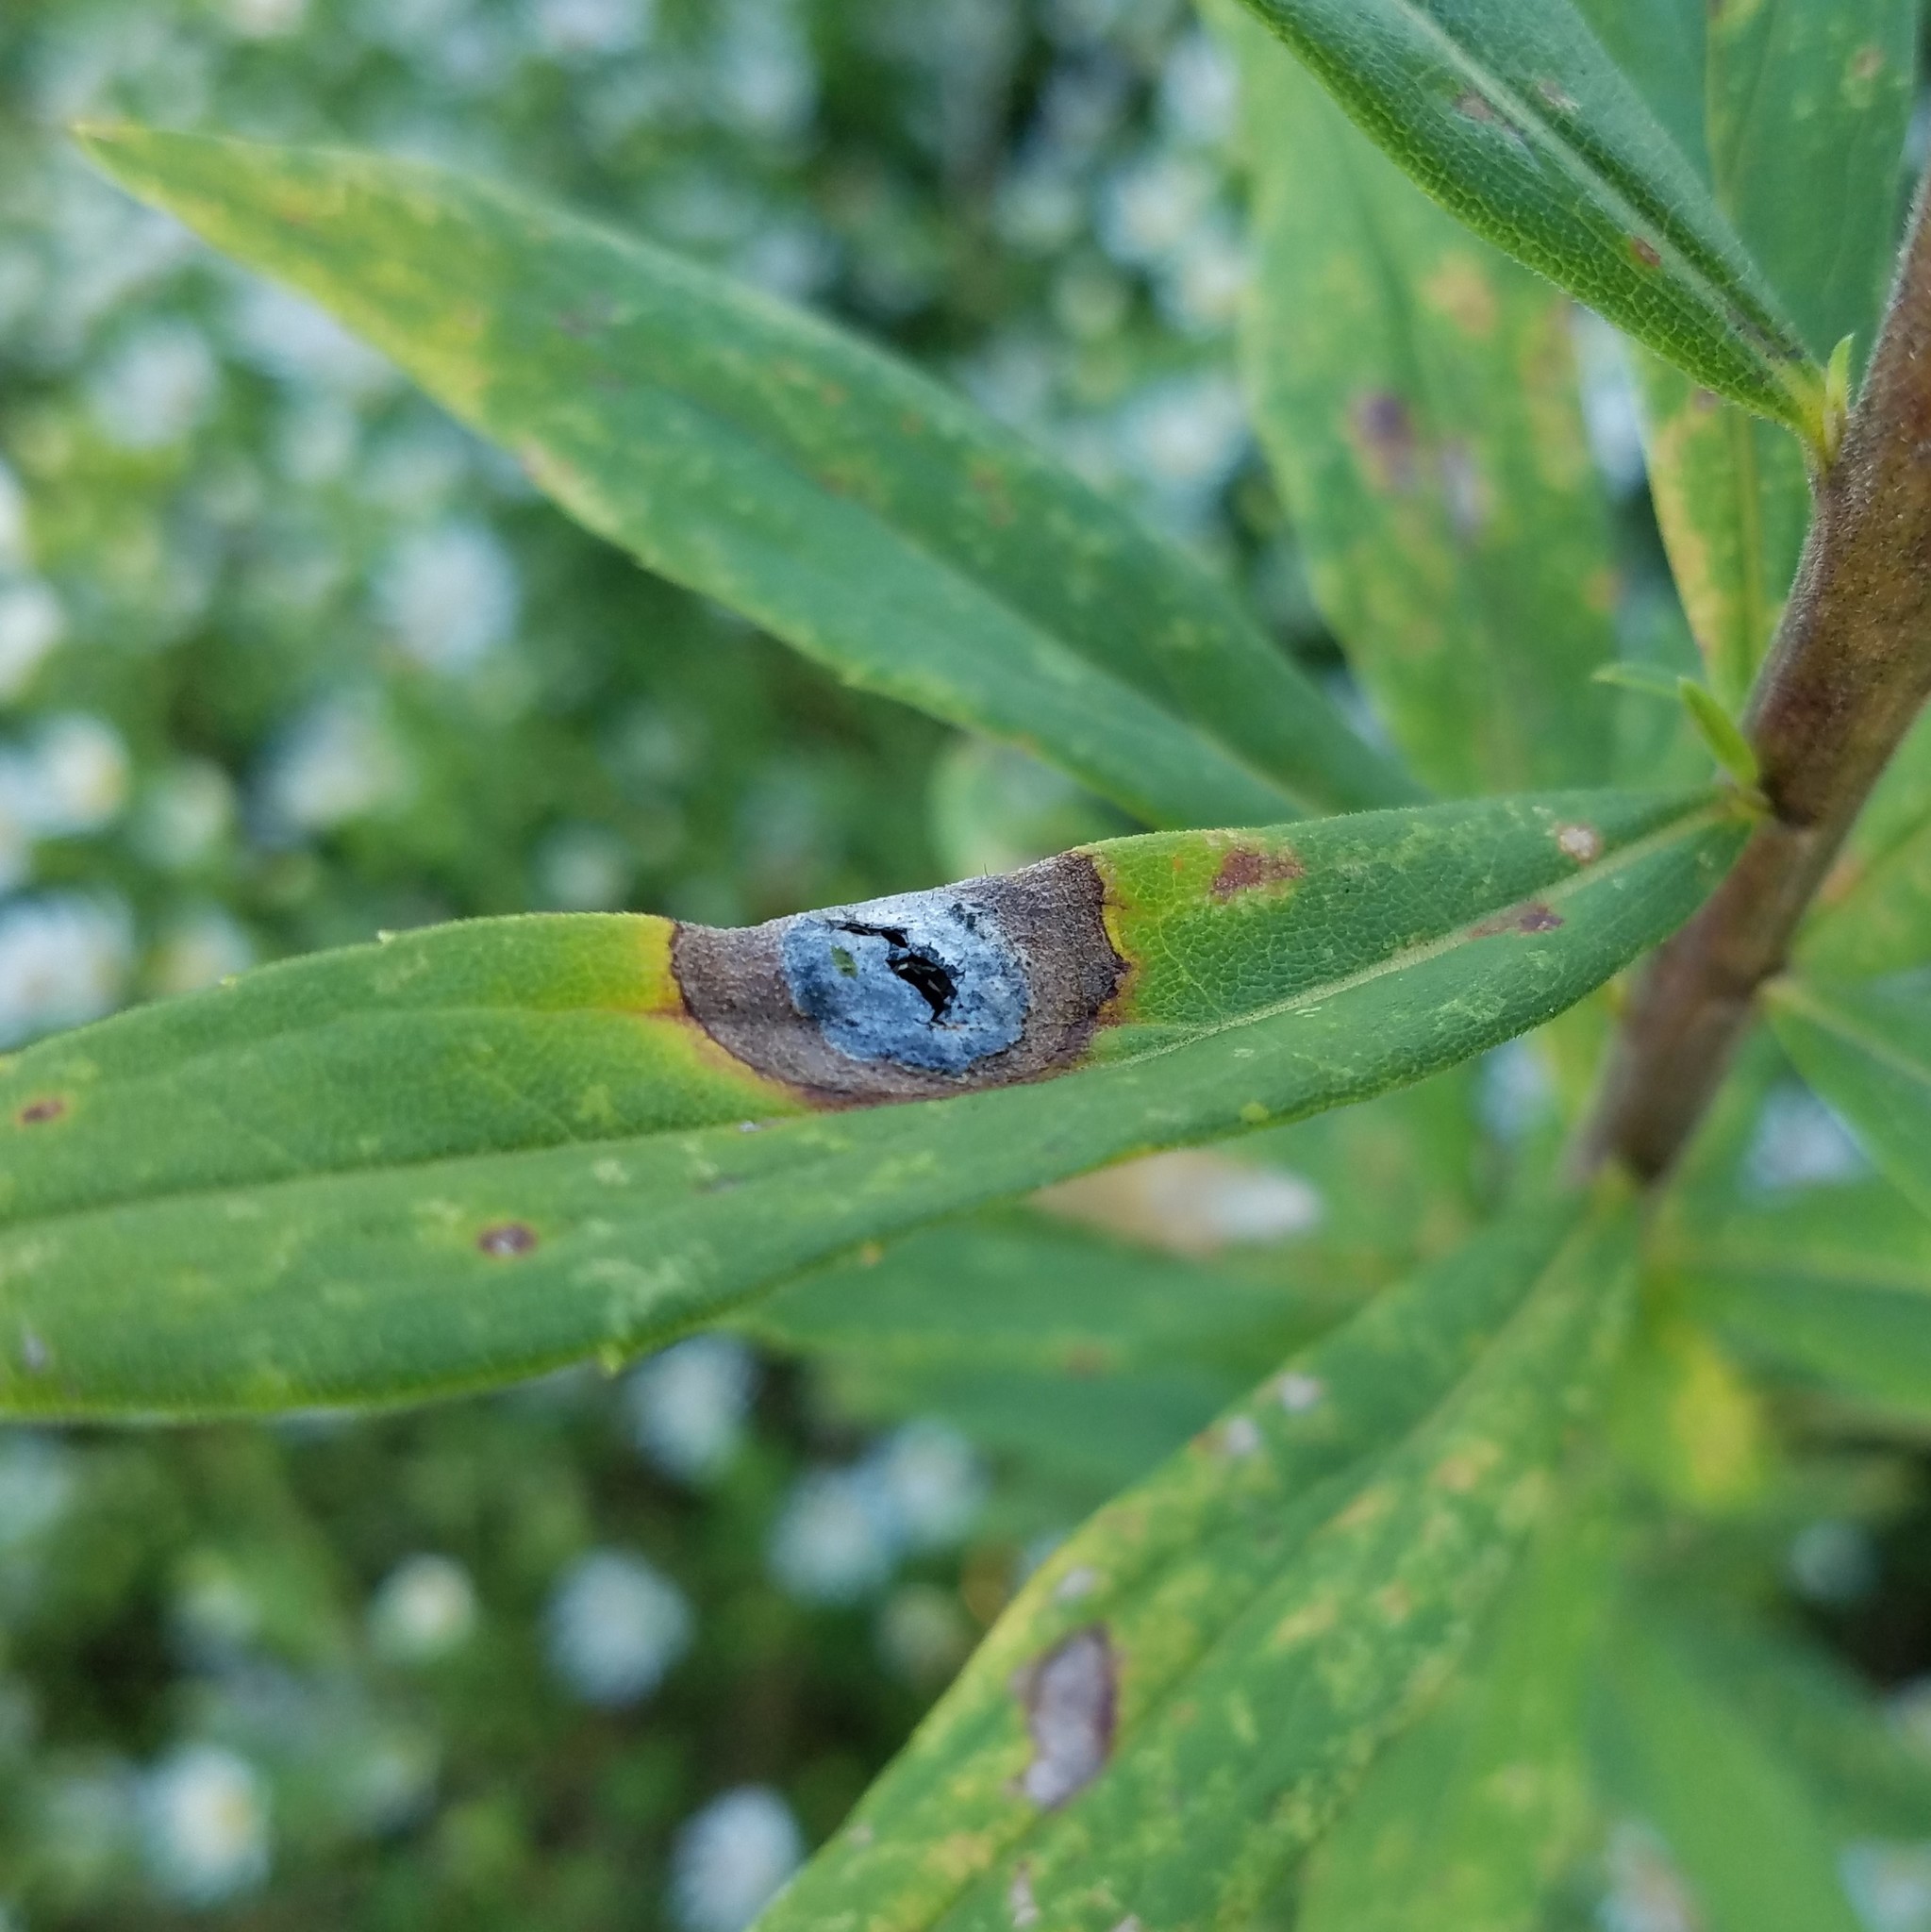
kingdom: Animalia
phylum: Arthropoda
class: Insecta
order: Diptera
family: Cecidomyiidae
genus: Asteromyia
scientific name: Asteromyia carbonifera
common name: Carbonifera goldenrod gall midge
